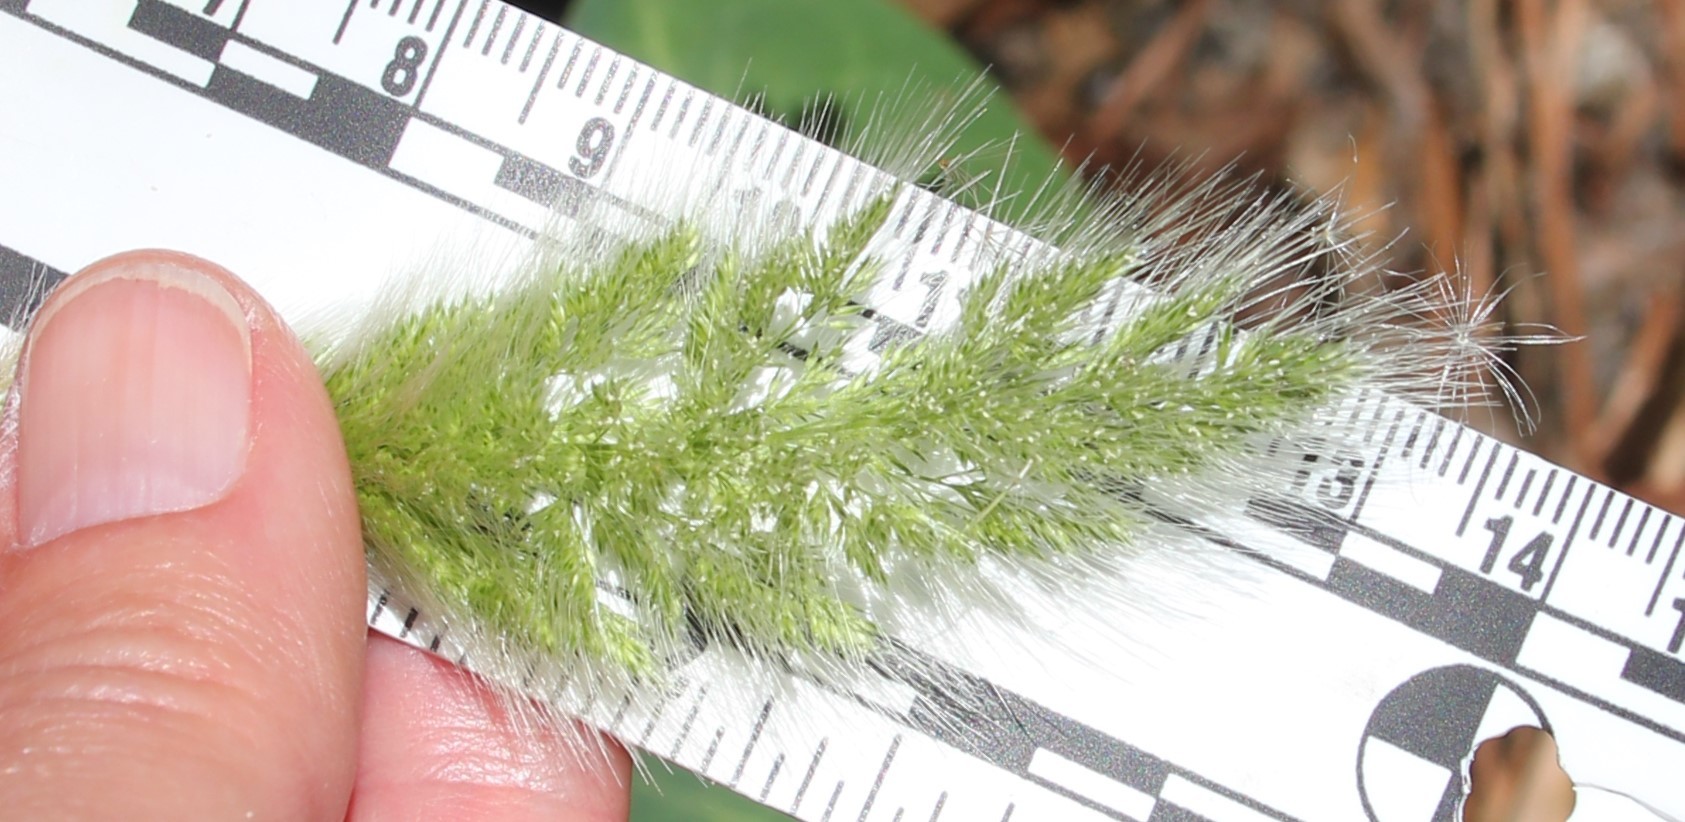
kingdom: Plantae
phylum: Tracheophyta
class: Liliopsida
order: Poales
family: Poaceae
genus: Polypogon
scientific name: Polypogon monspeliensis
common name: Annual rabbitsfoot grass
